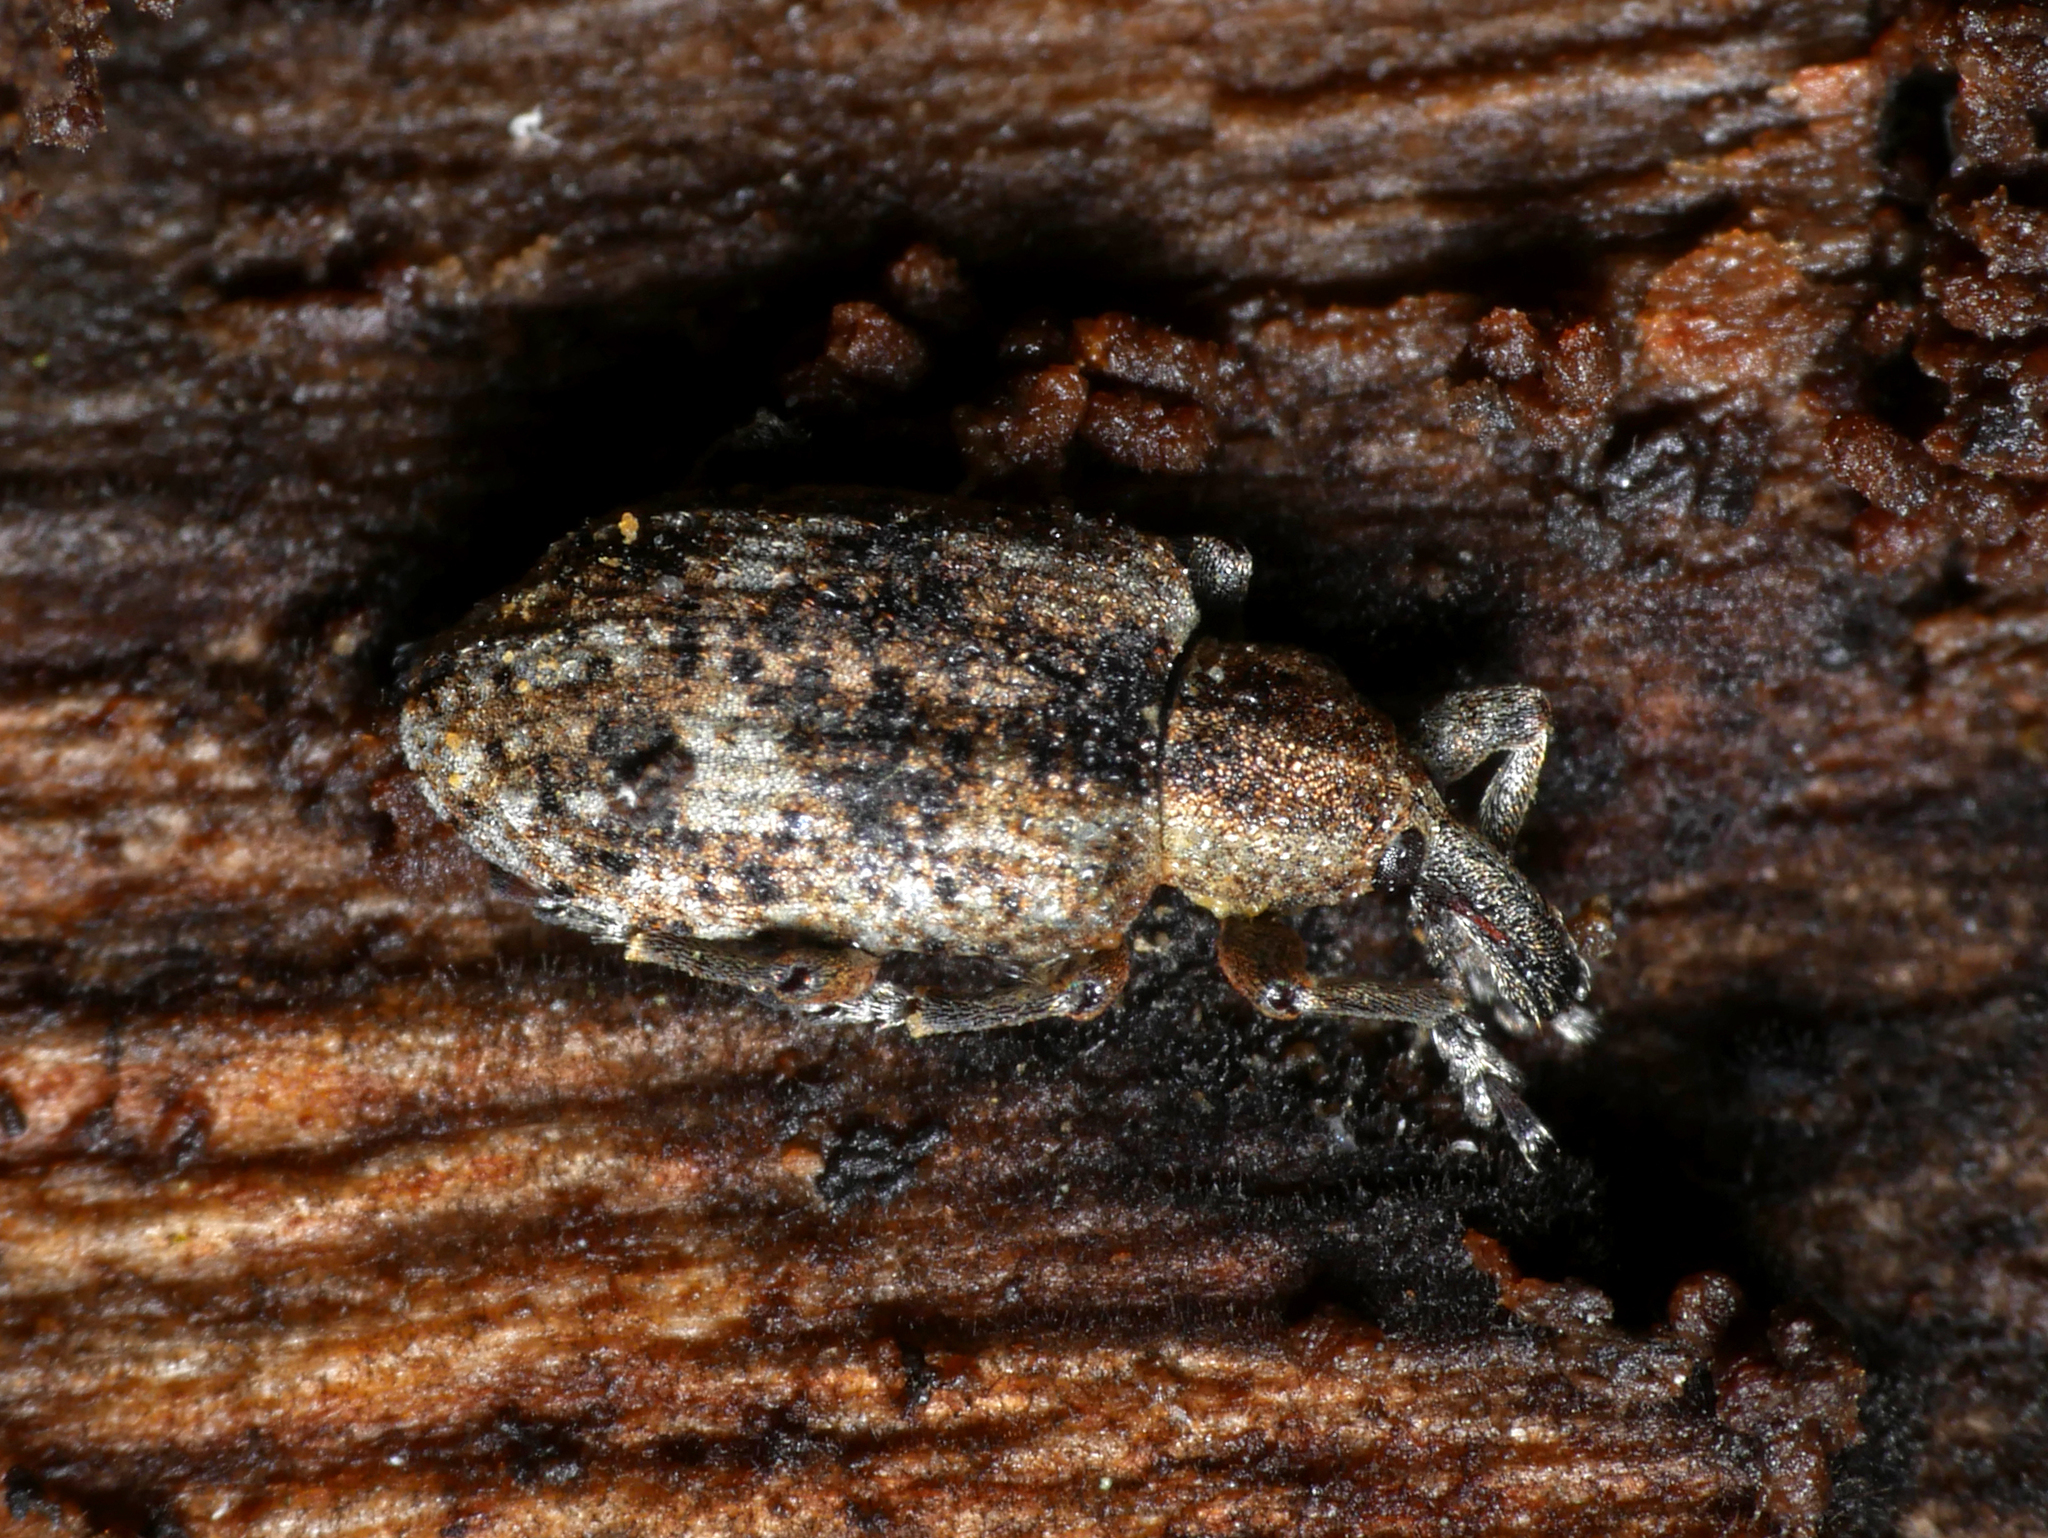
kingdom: Animalia
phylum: Arthropoda
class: Insecta
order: Coleoptera
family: Curculionidae
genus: Hypera
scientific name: Hypera rumicis
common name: Weevil
